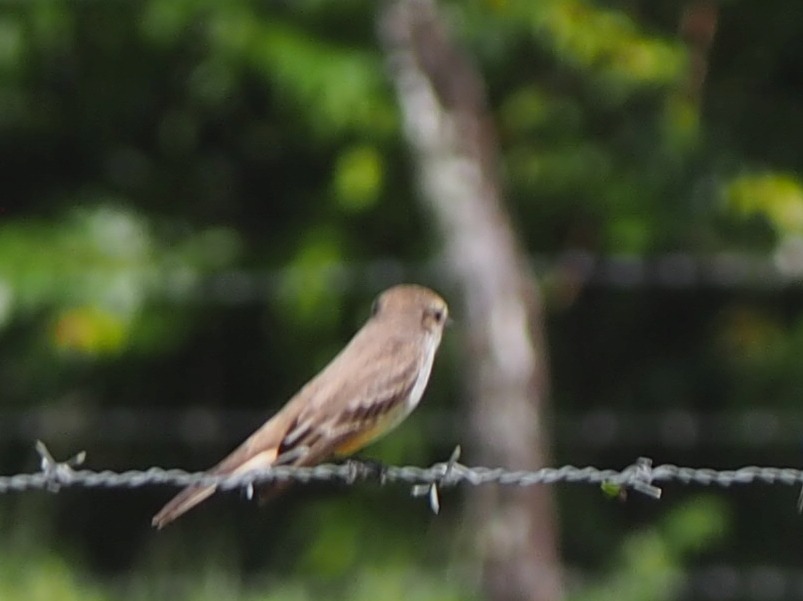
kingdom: Animalia
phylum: Chordata
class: Aves
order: Passeriformes
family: Tyrannidae
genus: Pyrocephalus
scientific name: Pyrocephalus rubinus
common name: Vermilion flycatcher
